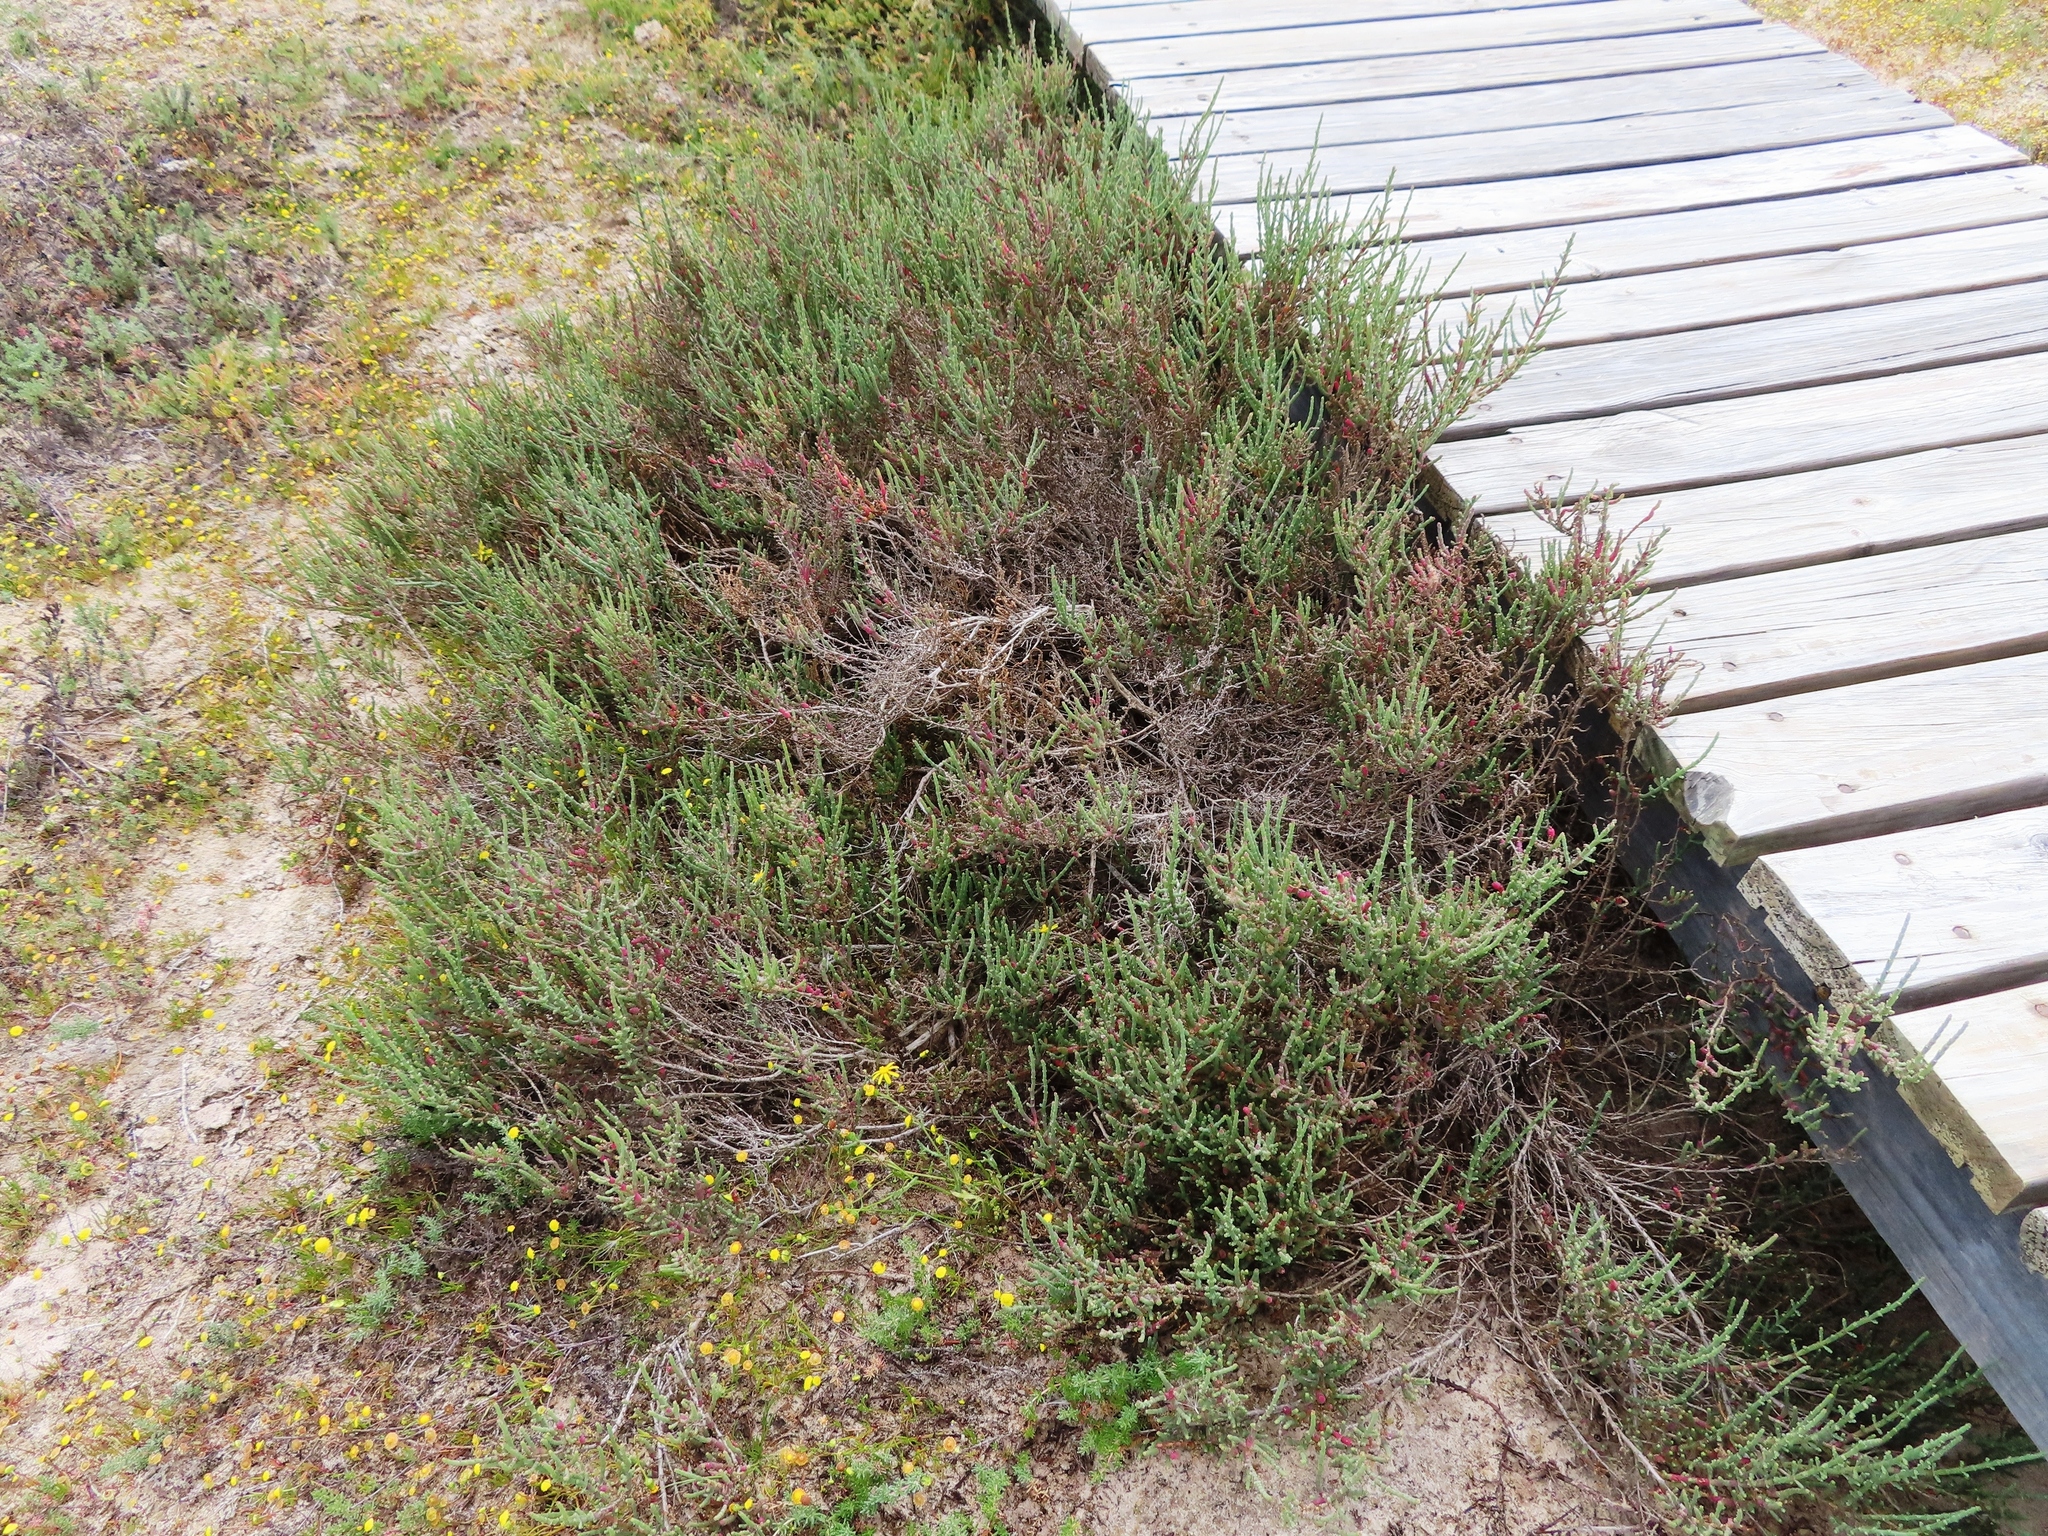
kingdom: Plantae
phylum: Tracheophyta
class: Magnoliopsida
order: Caryophyllales
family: Amaranthaceae
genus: Salicornia
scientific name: Salicornia pillansii
